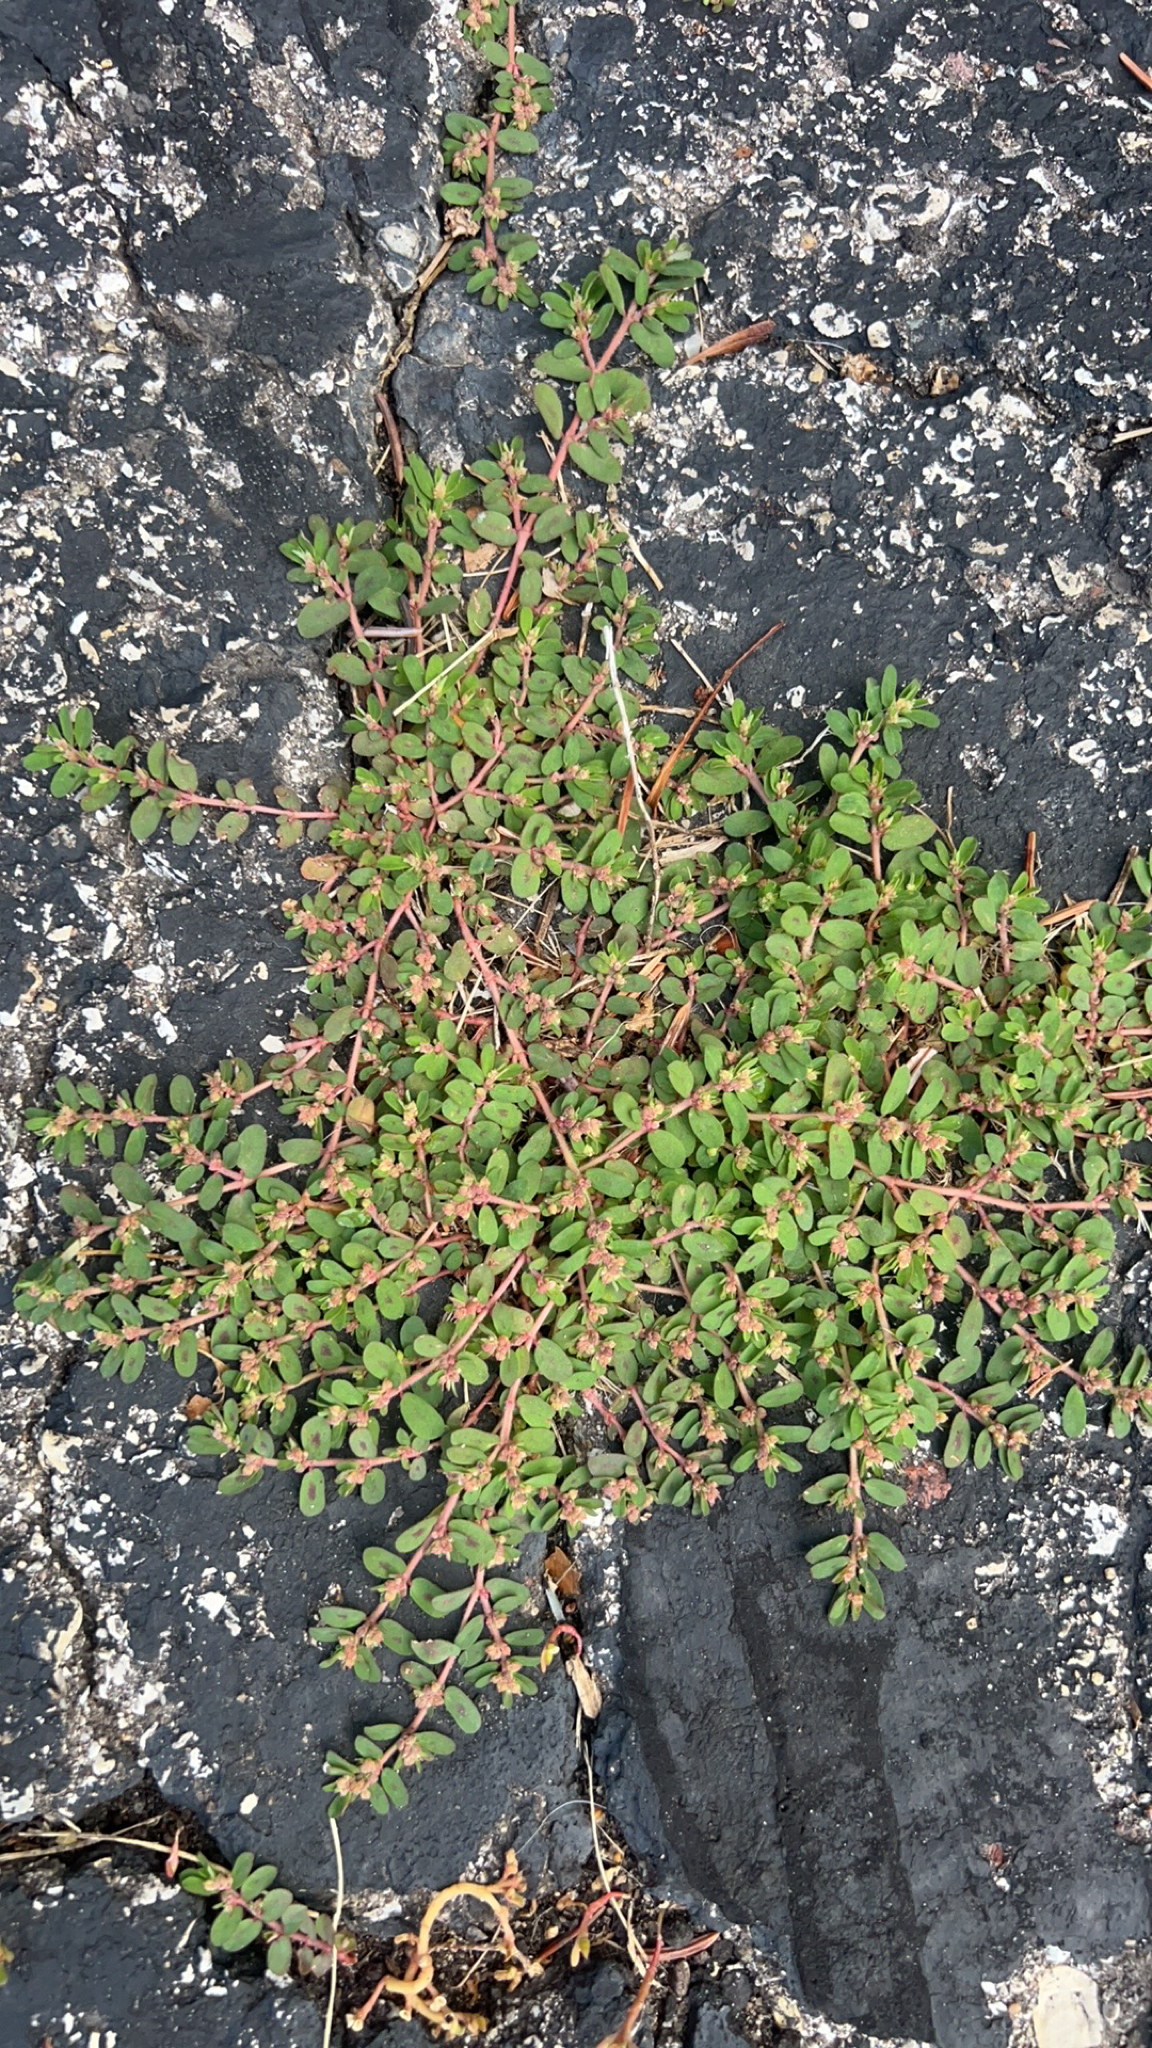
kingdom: Plantae
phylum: Tracheophyta
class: Magnoliopsida
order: Malpighiales
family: Euphorbiaceae
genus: Euphorbia
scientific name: Euphorbia maculata
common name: Spotted spurge
